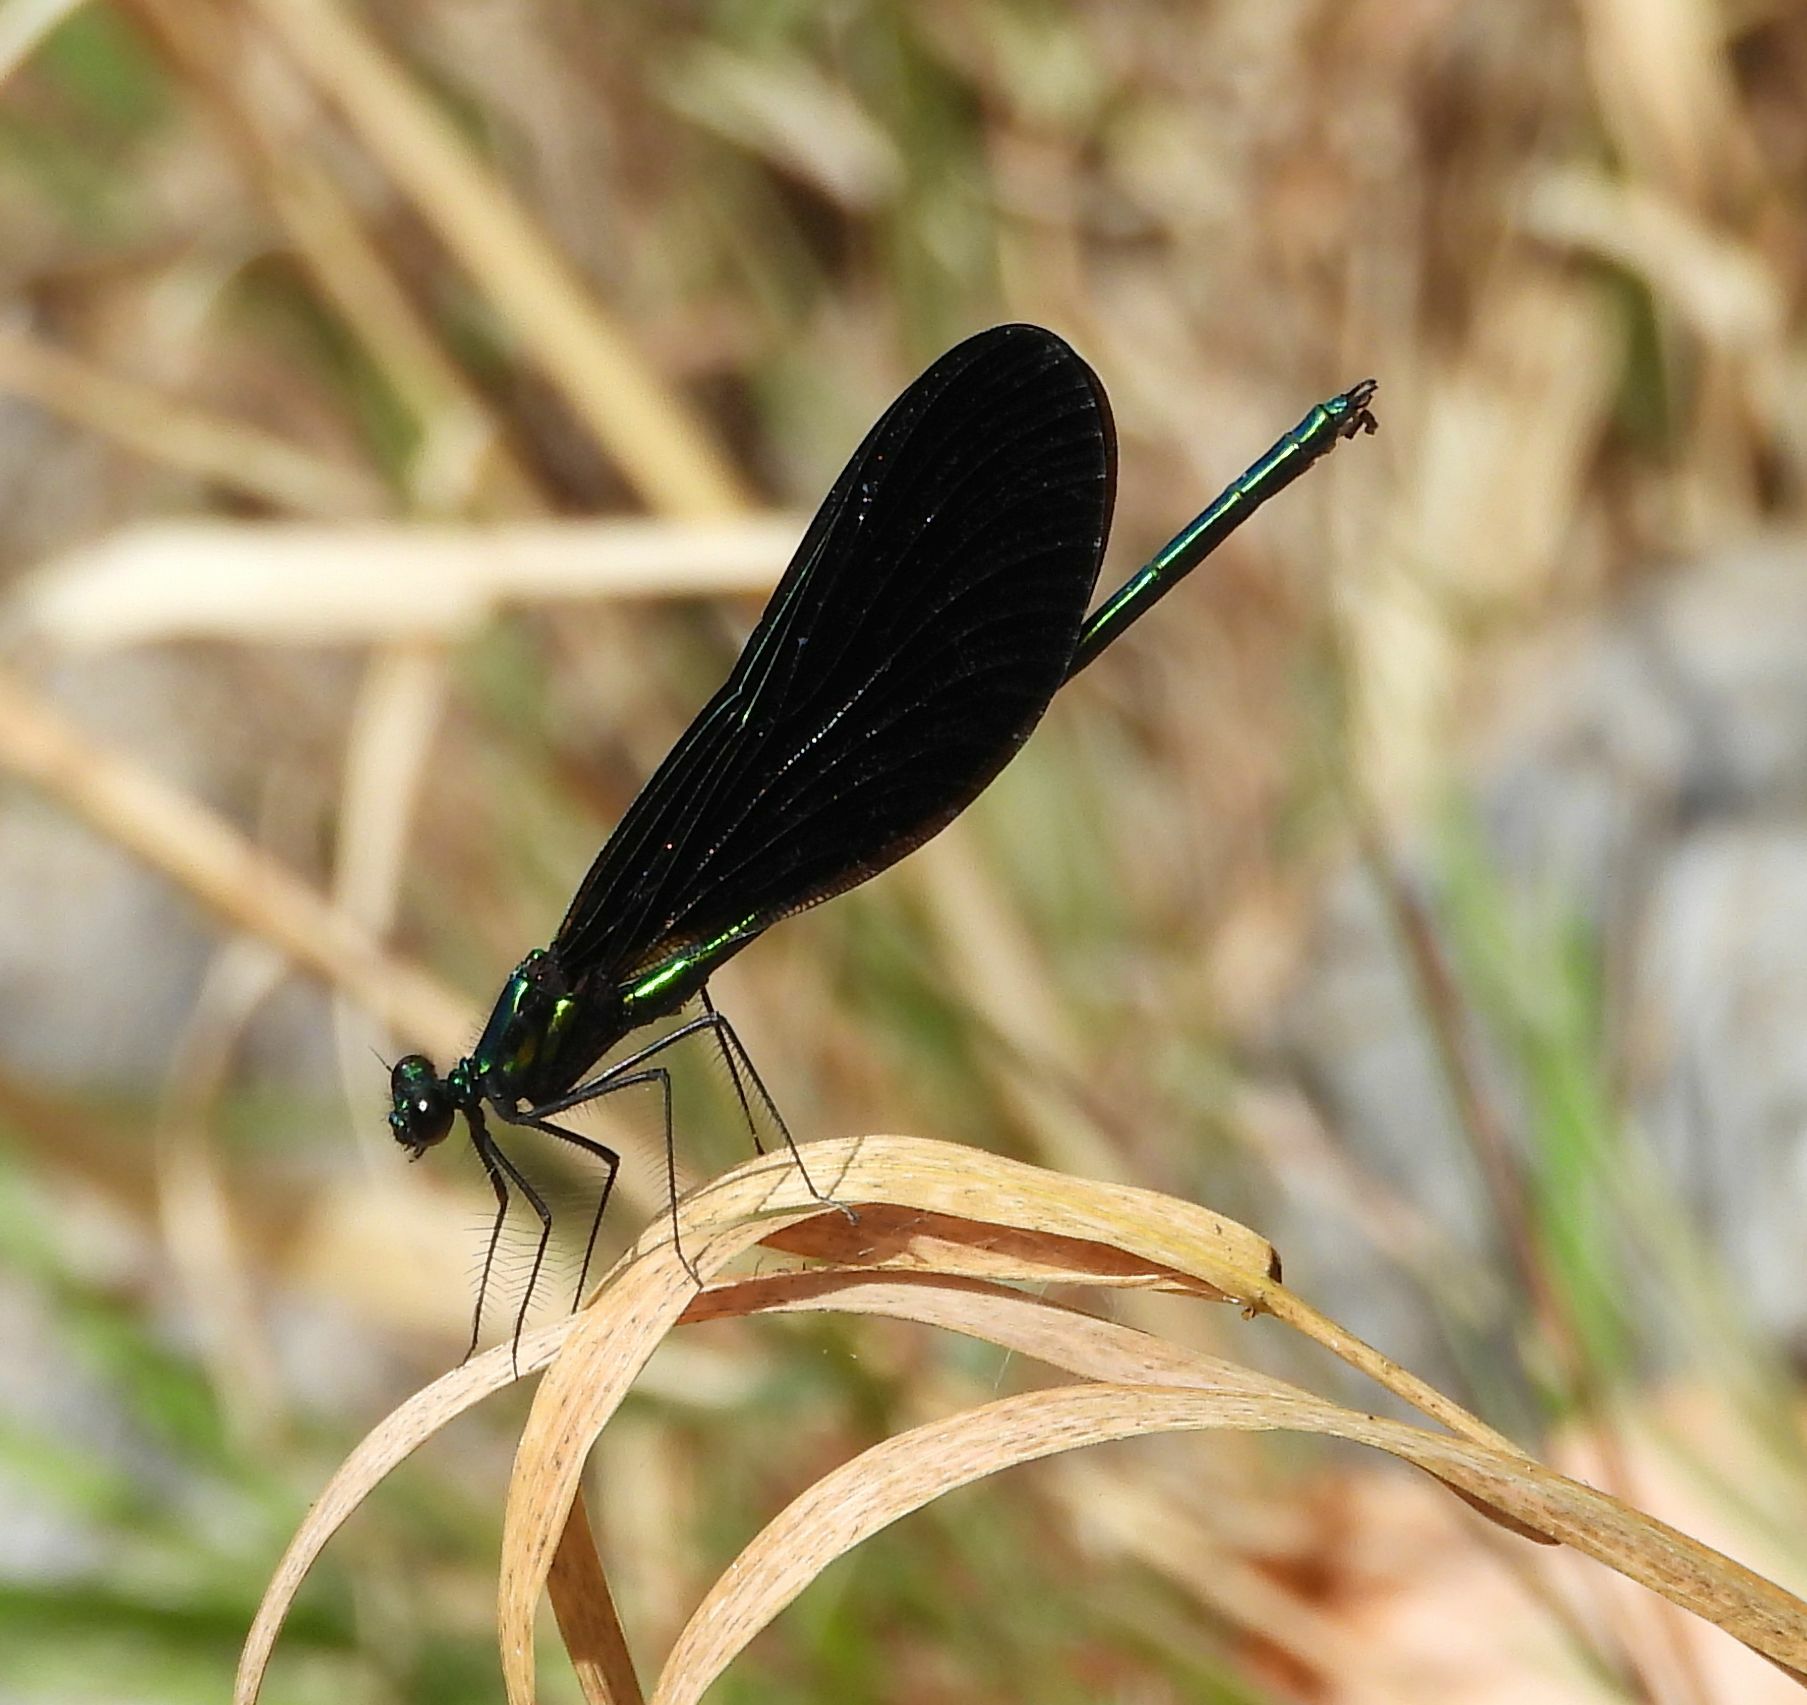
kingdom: Animalia
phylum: Arthropoda
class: Insecta
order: Odonata
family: Calopterygidae
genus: Calopteryx
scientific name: Calopteryx maculata
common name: Ebony jewelwing
